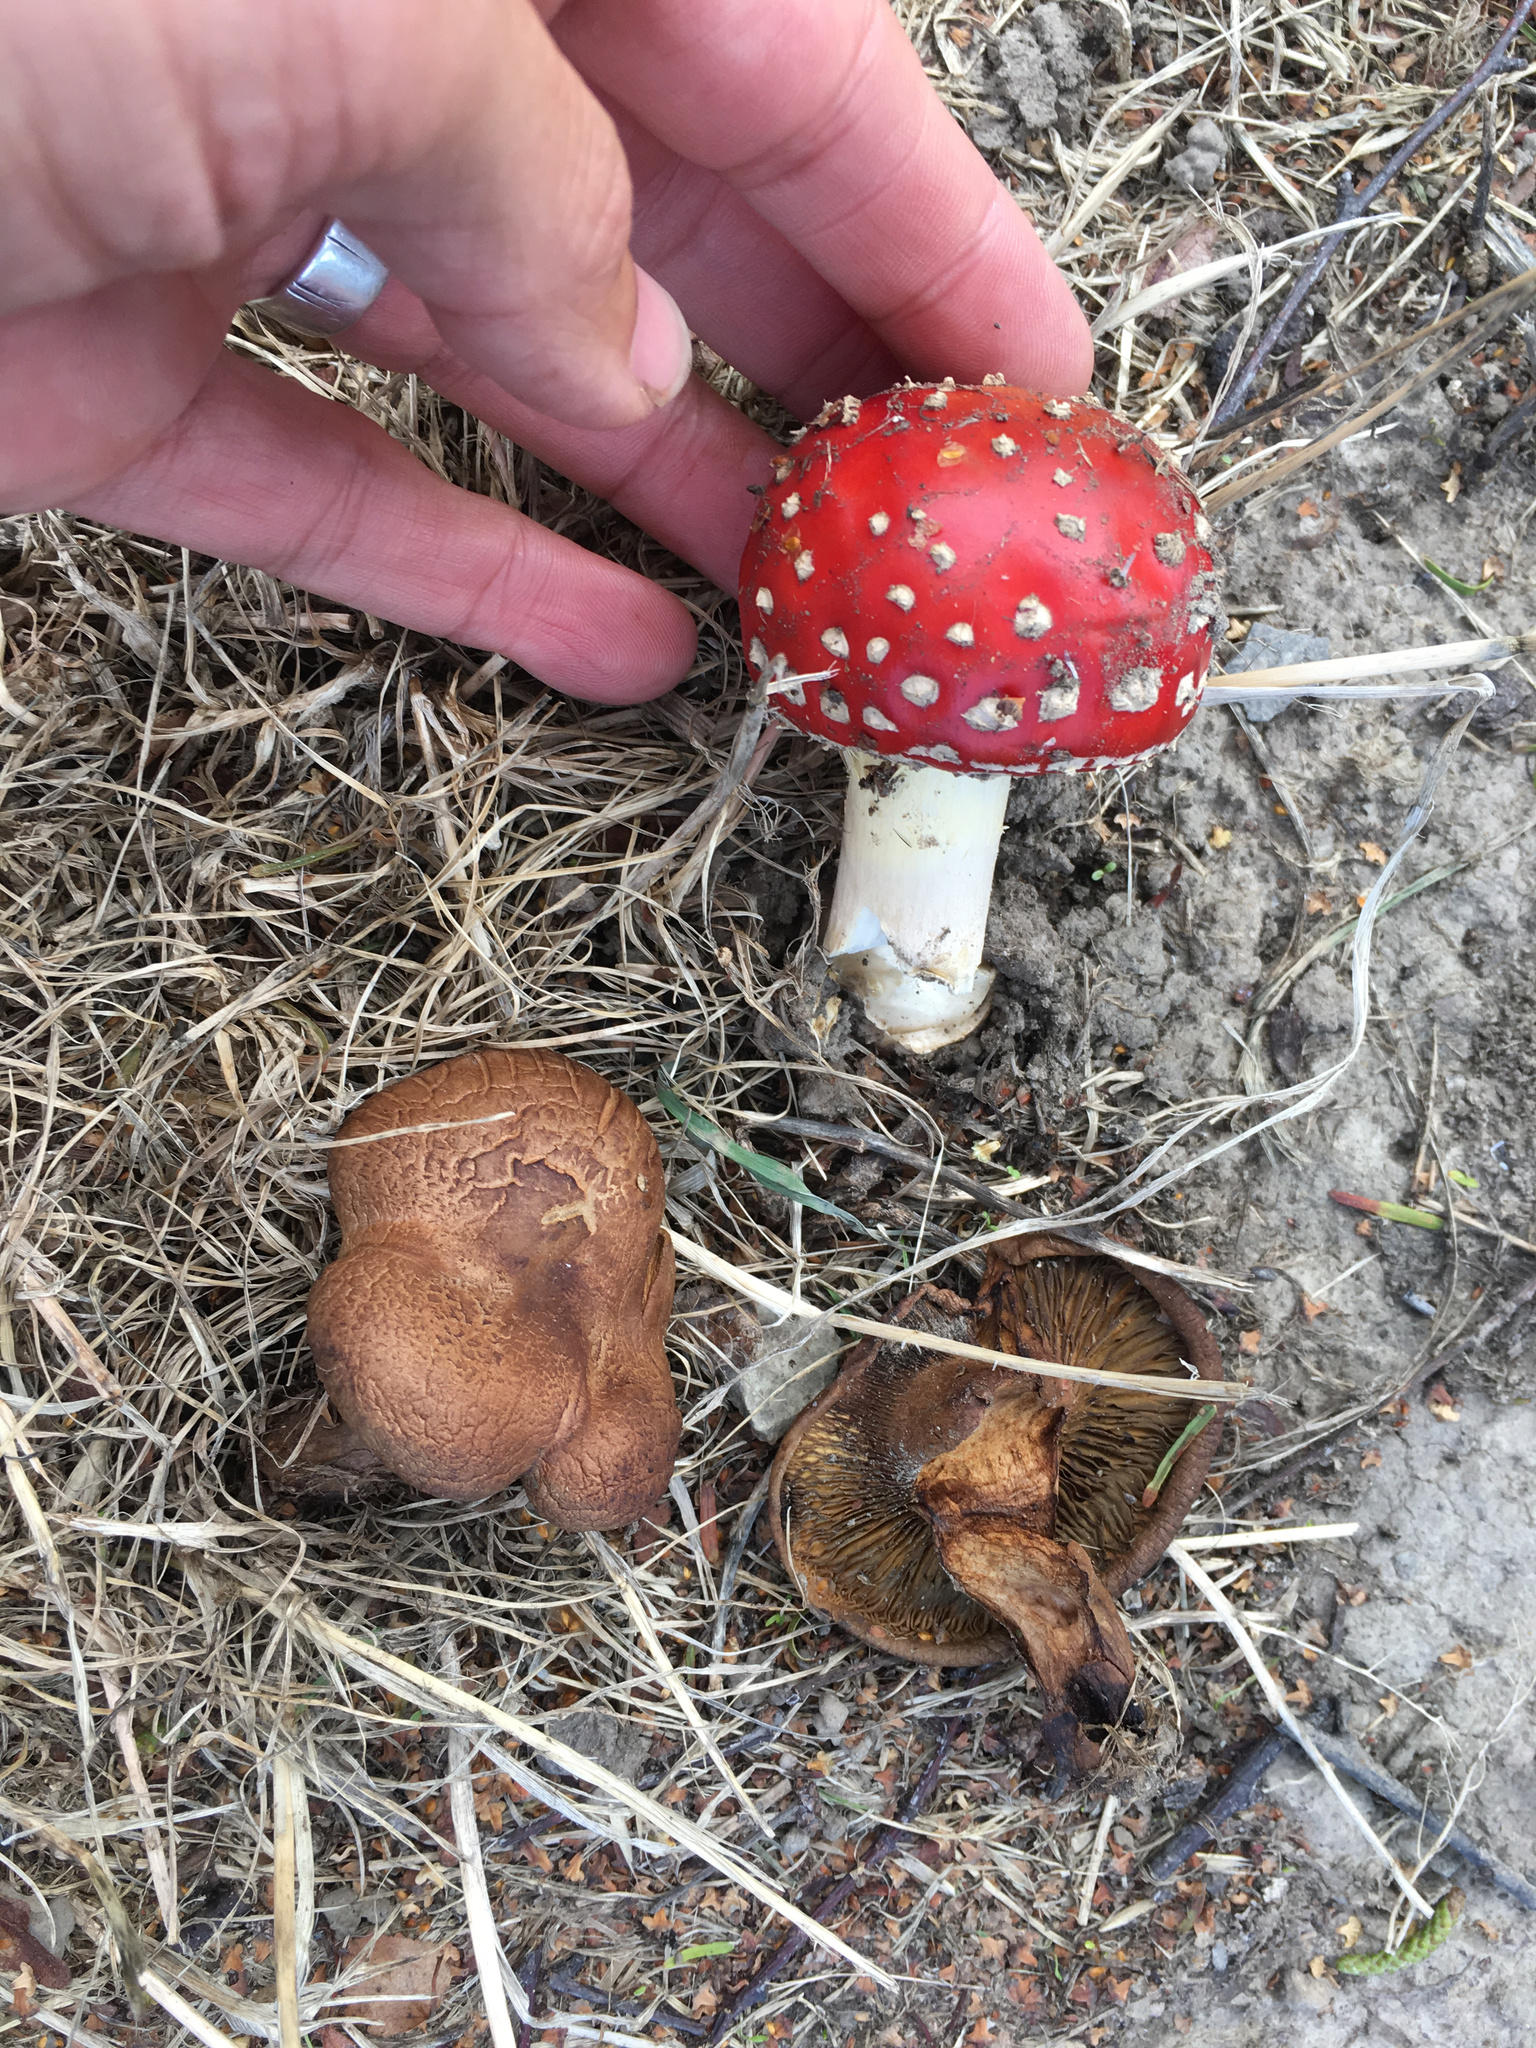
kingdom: Fungi
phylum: Basidiomycota
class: Agaricomycetes
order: Agaricales
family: Amanitaceae
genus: Amanita
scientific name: Amanita muscaria
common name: Fly agaric
